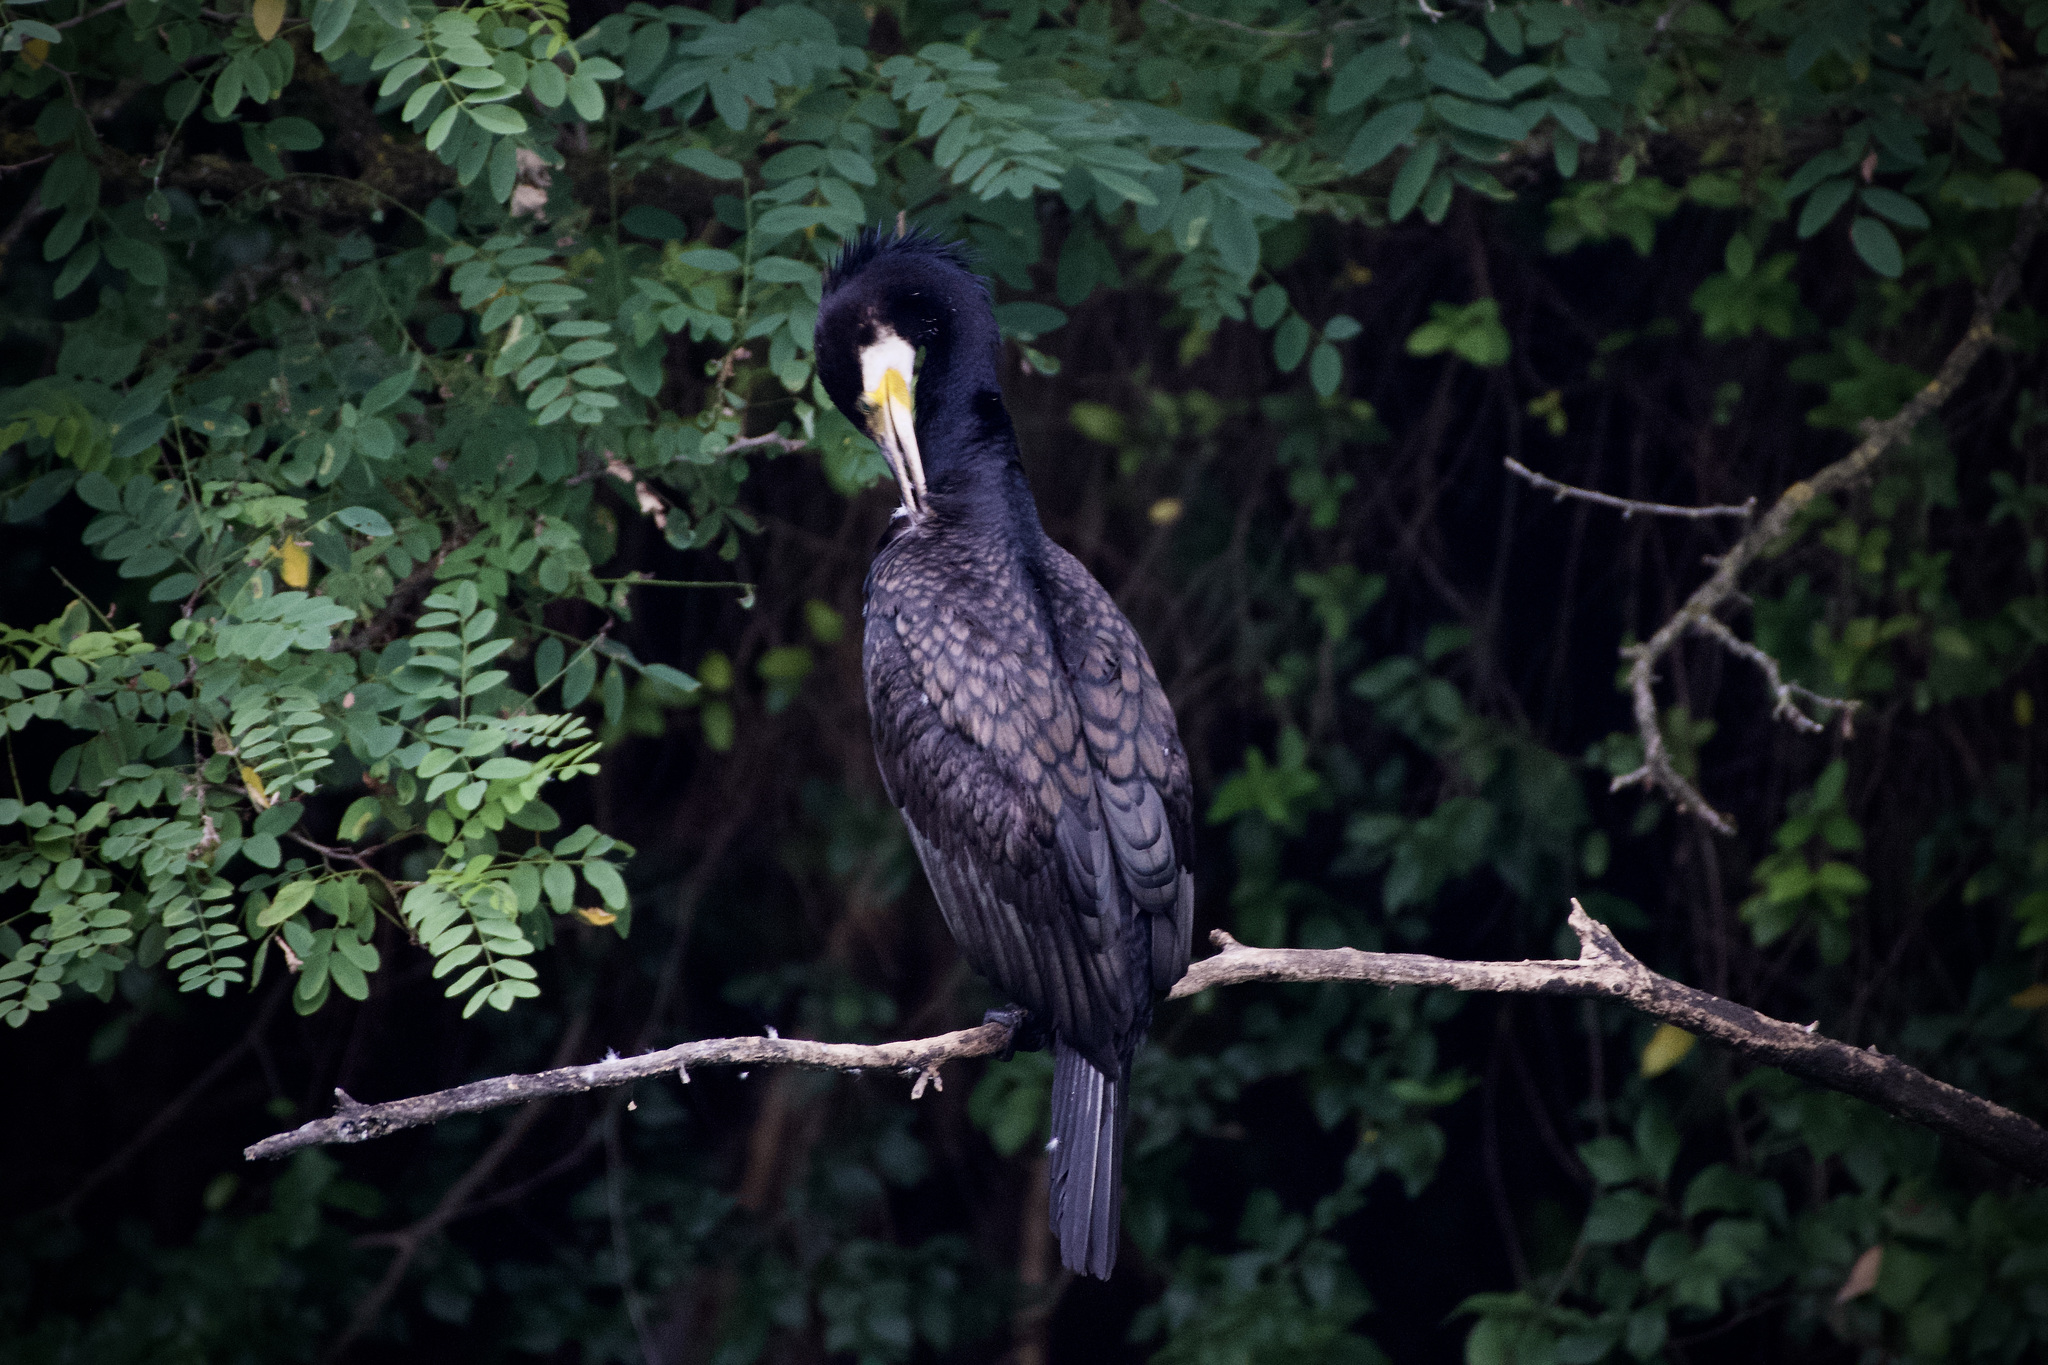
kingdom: Animalia
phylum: Chordata
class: Aves
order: Suliformes
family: Phalacrocoracidae
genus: Phalacrocorax
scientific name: Phalacrocorax carbo
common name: Great cormorant
